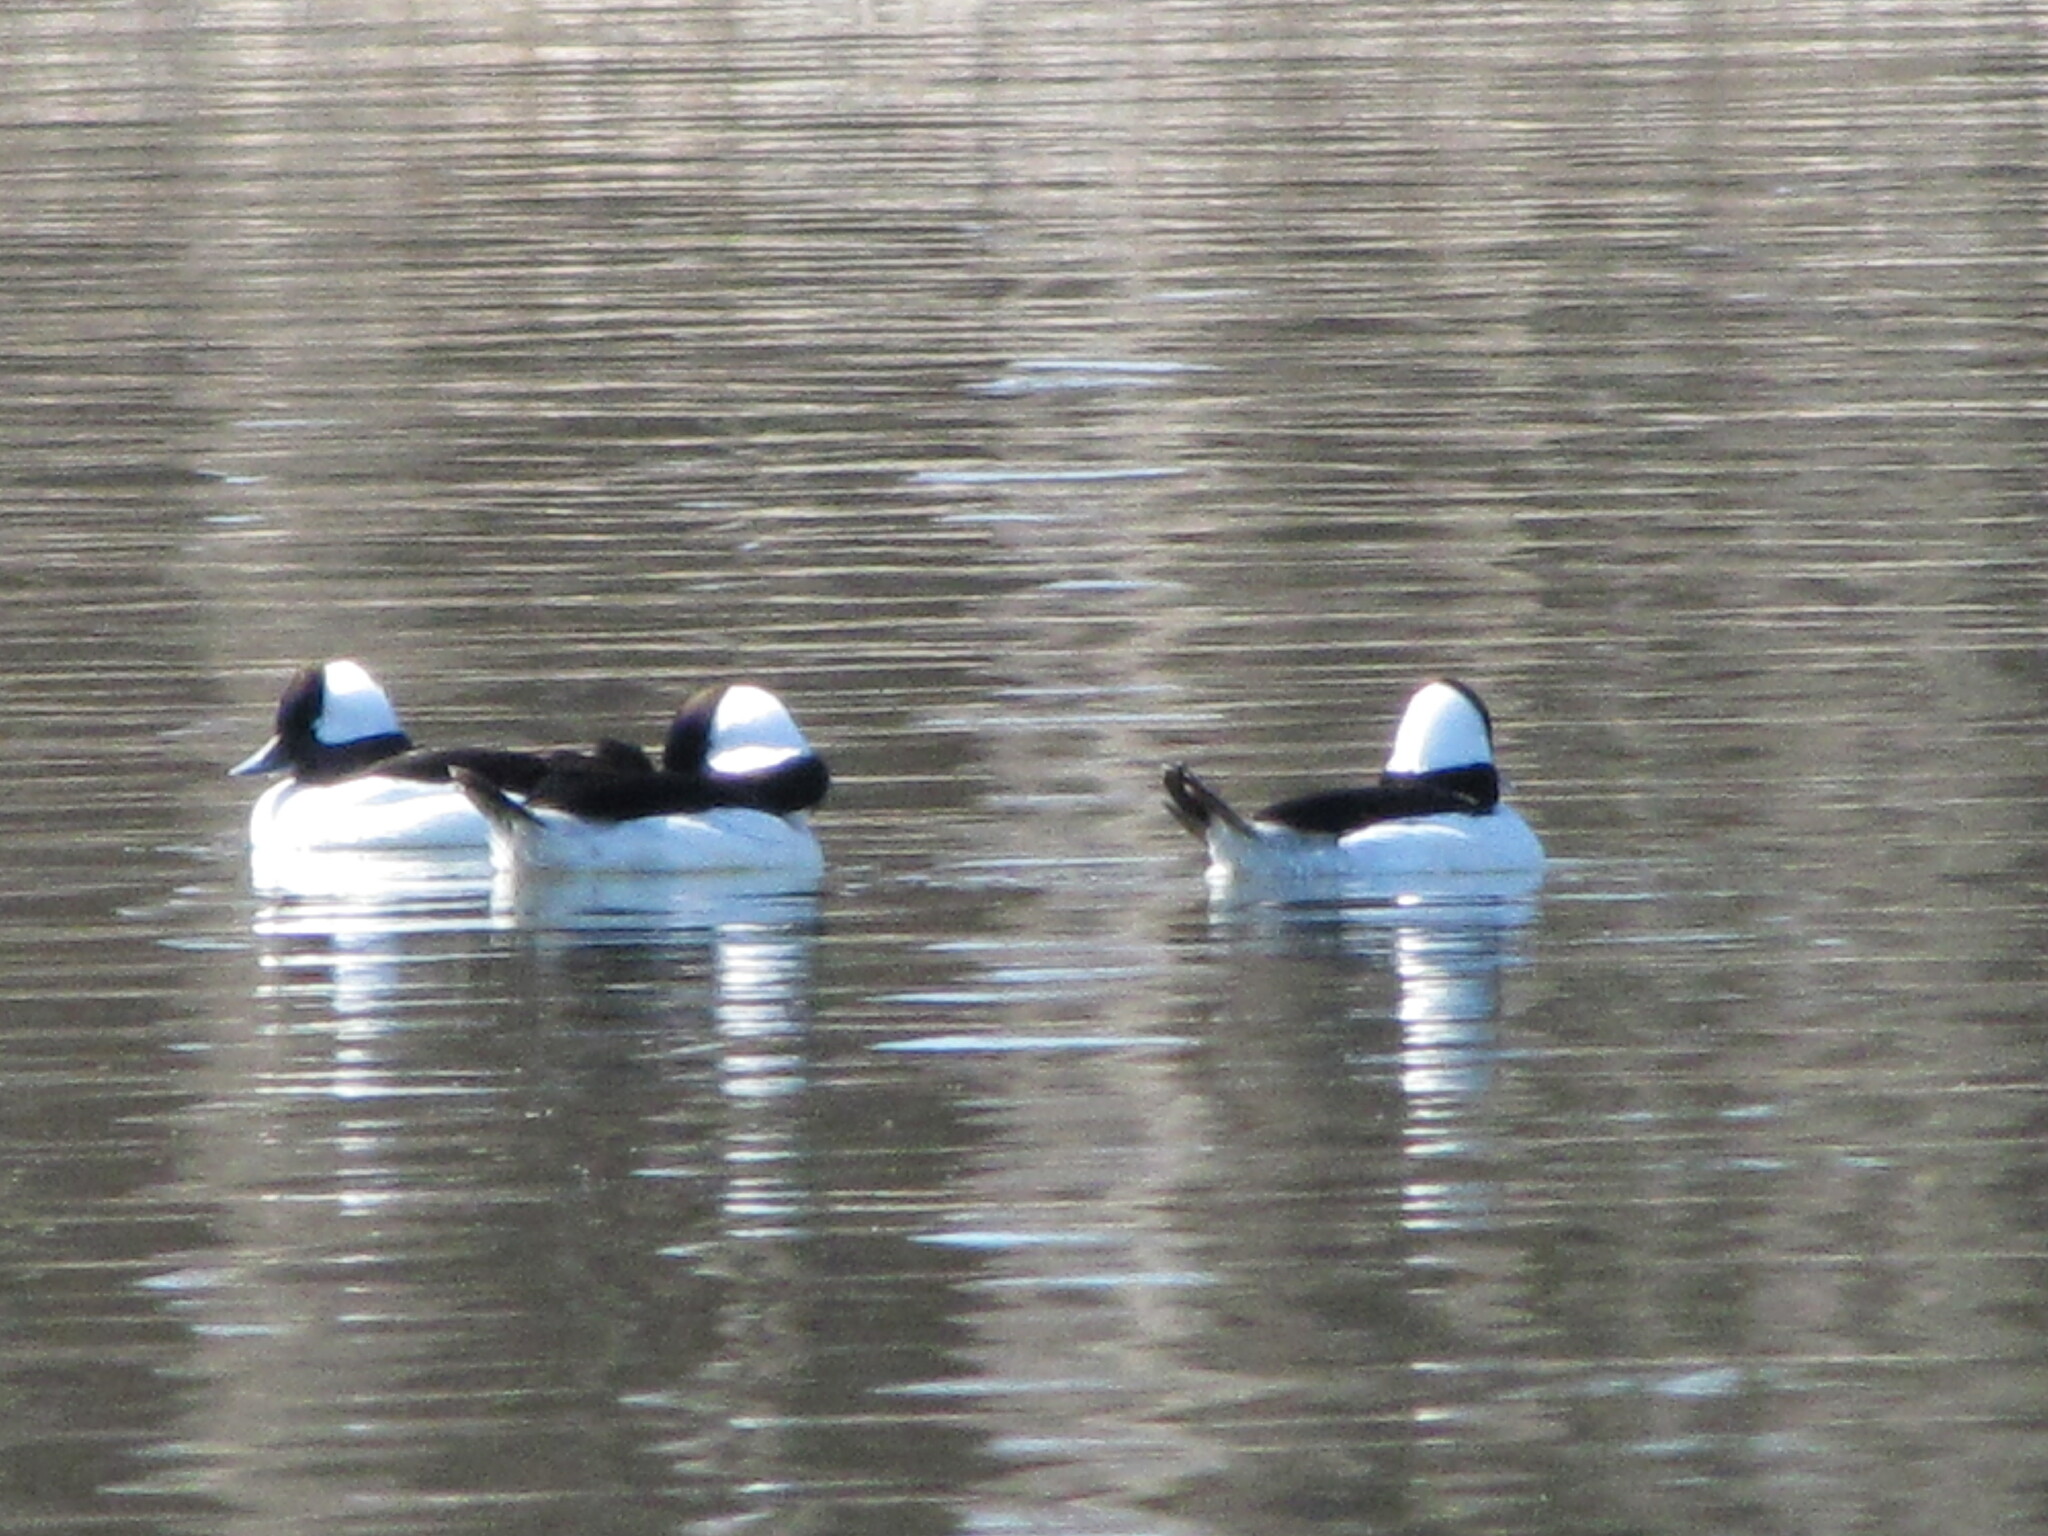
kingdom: Animalia
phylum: Chordata
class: Aves
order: Anseriformes
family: Anatidae
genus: Bucephala
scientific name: Bucephala albeola
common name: Bufflehead
